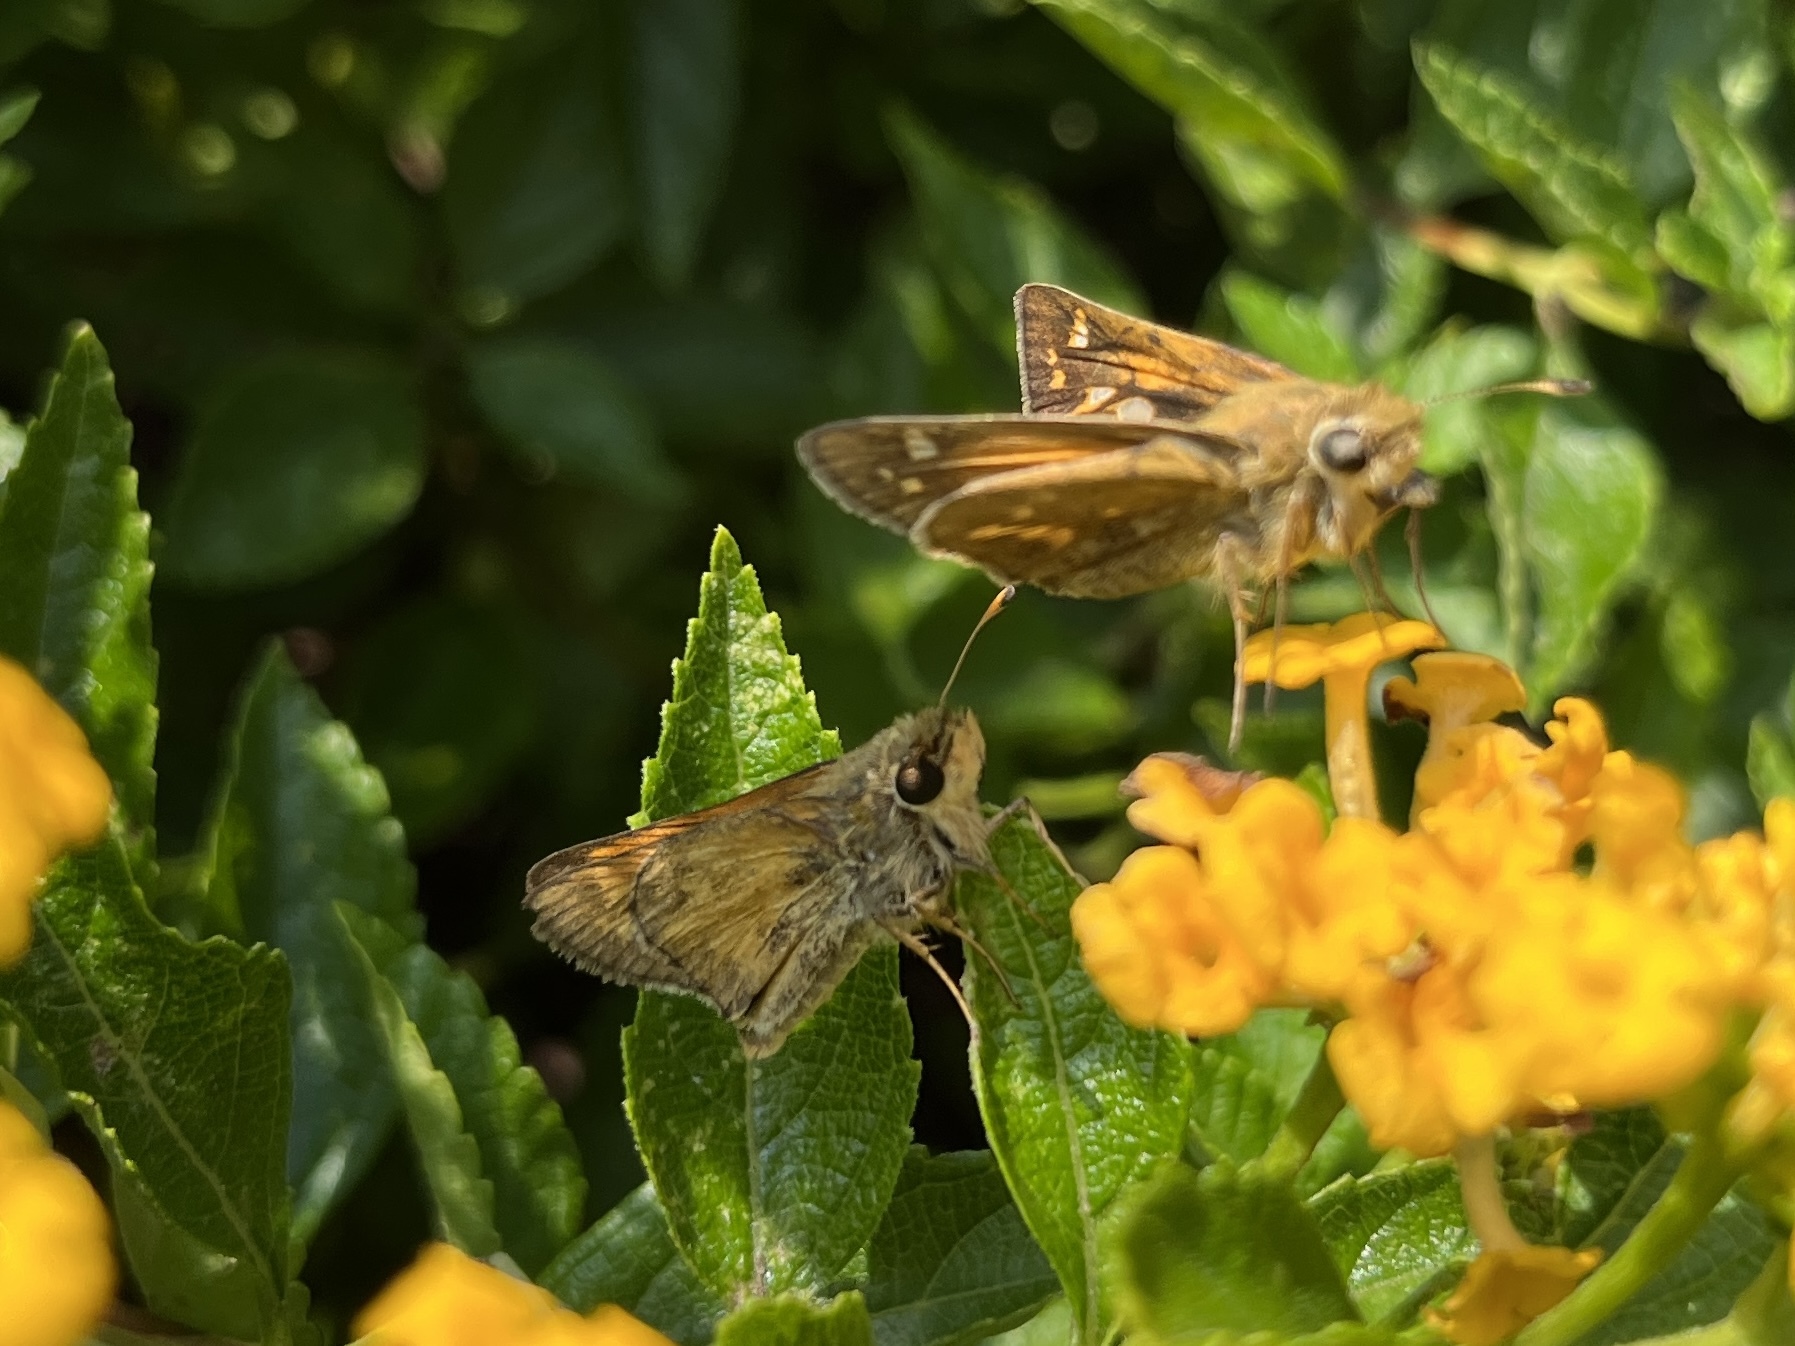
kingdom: Animalia
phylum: Arthropoda
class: Insecta
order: Lepidoptera
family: Hesperiidae
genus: Atalopedes
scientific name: Atalopedes
